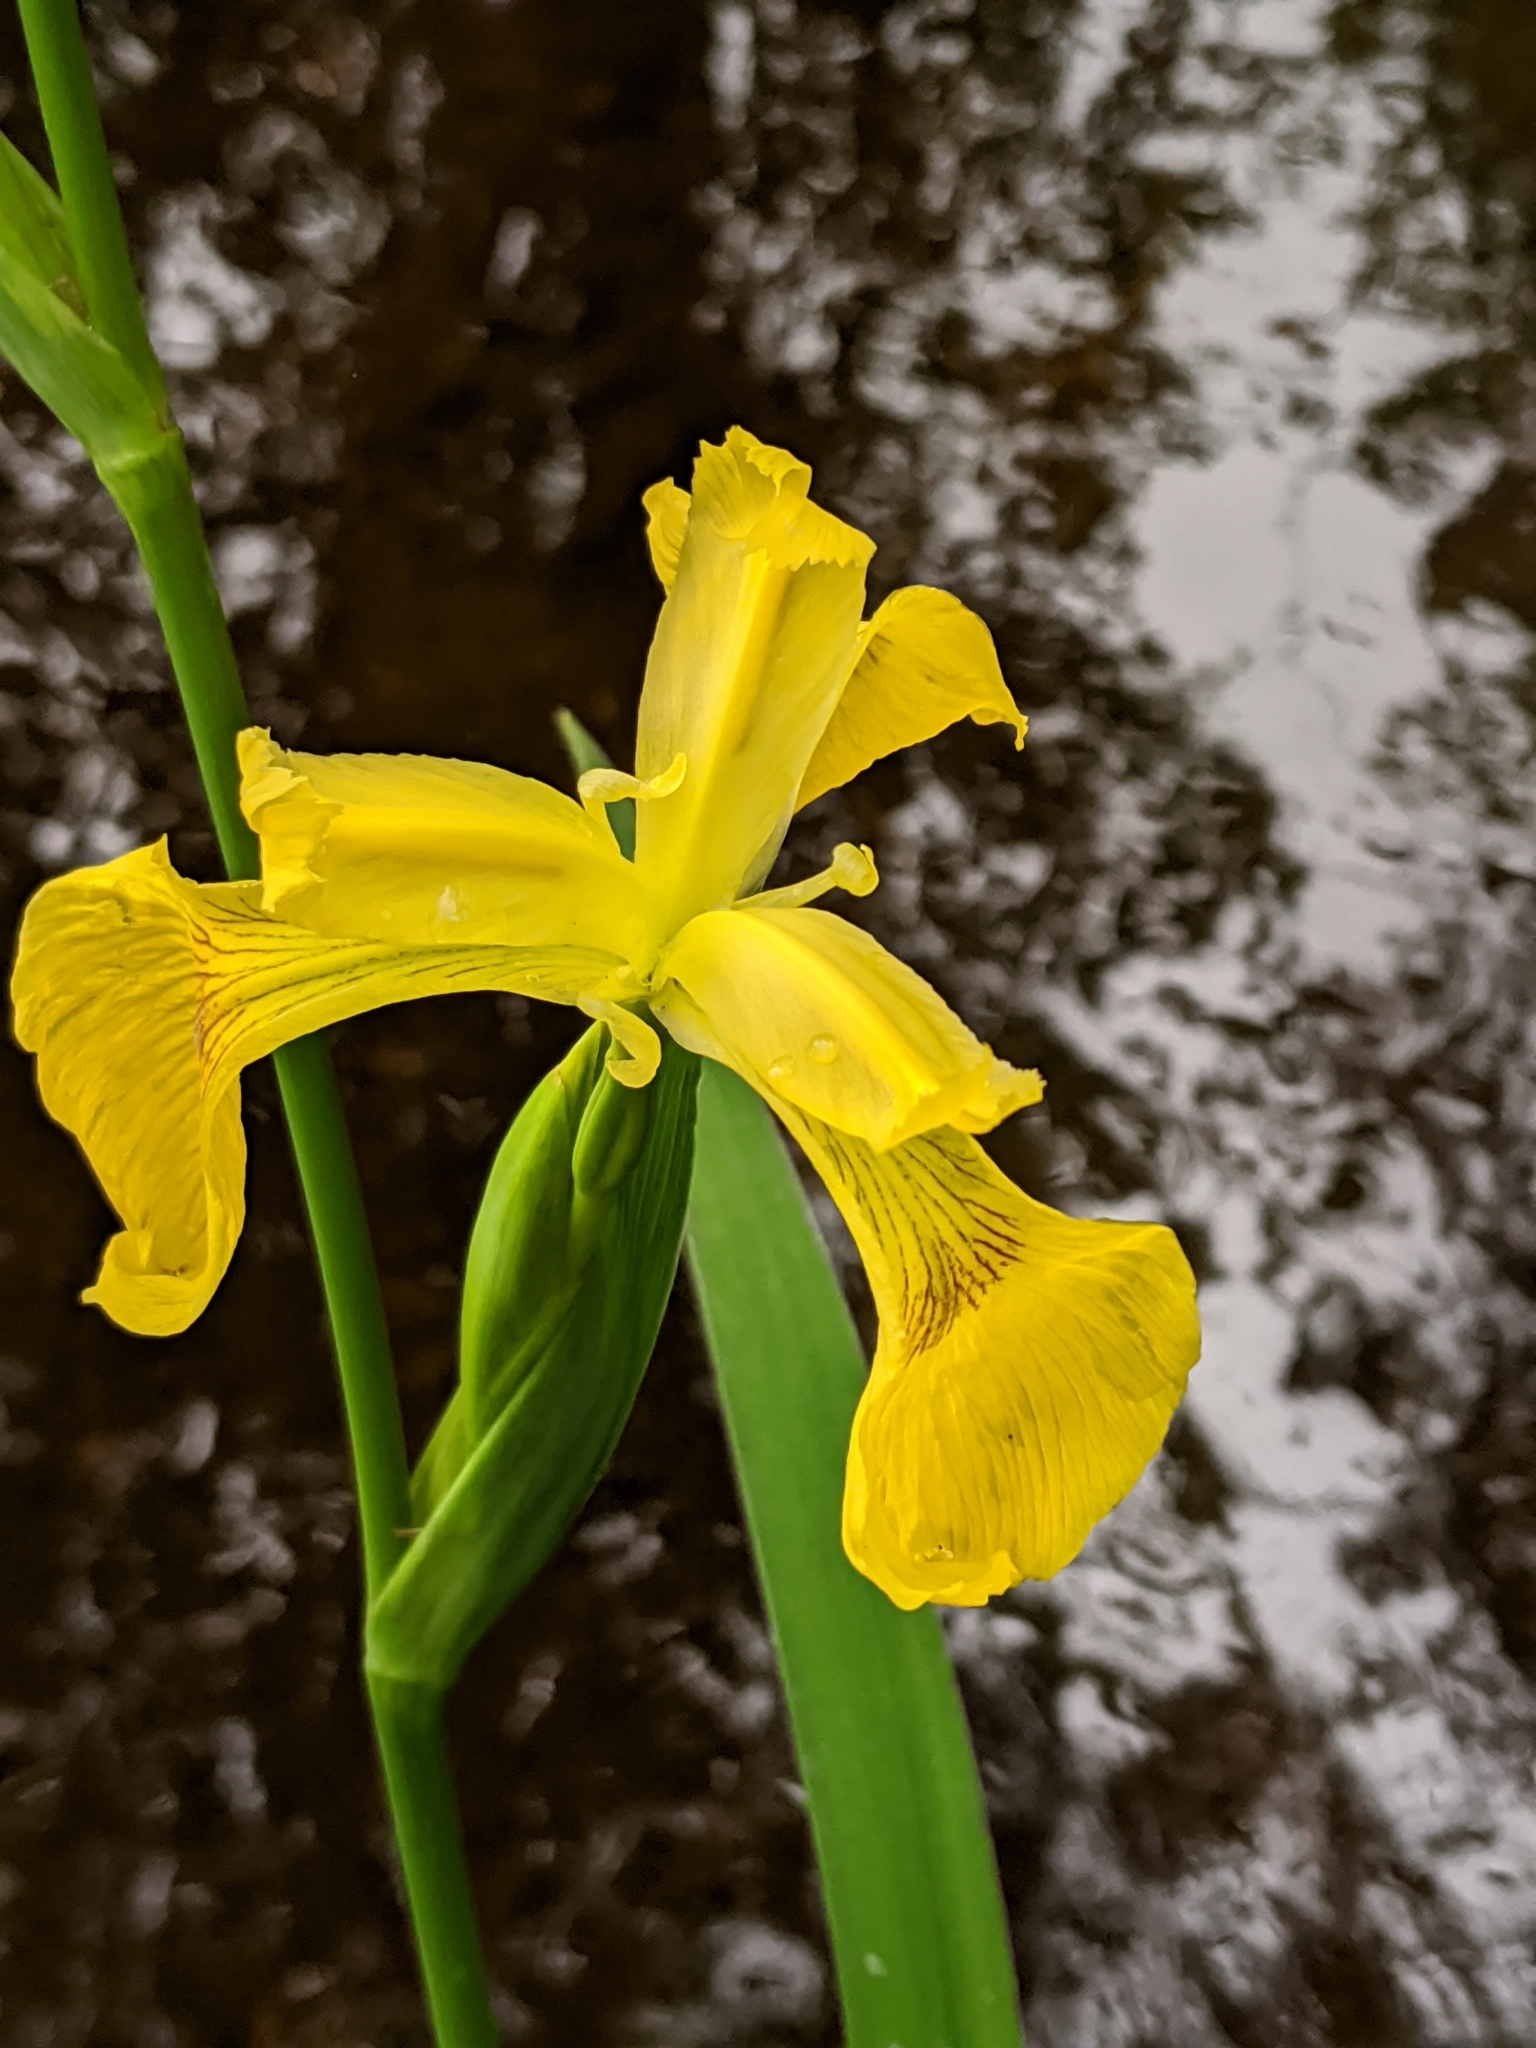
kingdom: Plantae
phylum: Tracheophyta
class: Liliopsida
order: Asparagales
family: Iridaceae
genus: Iris
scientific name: Iris pseudacorus
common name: Yellow flag
